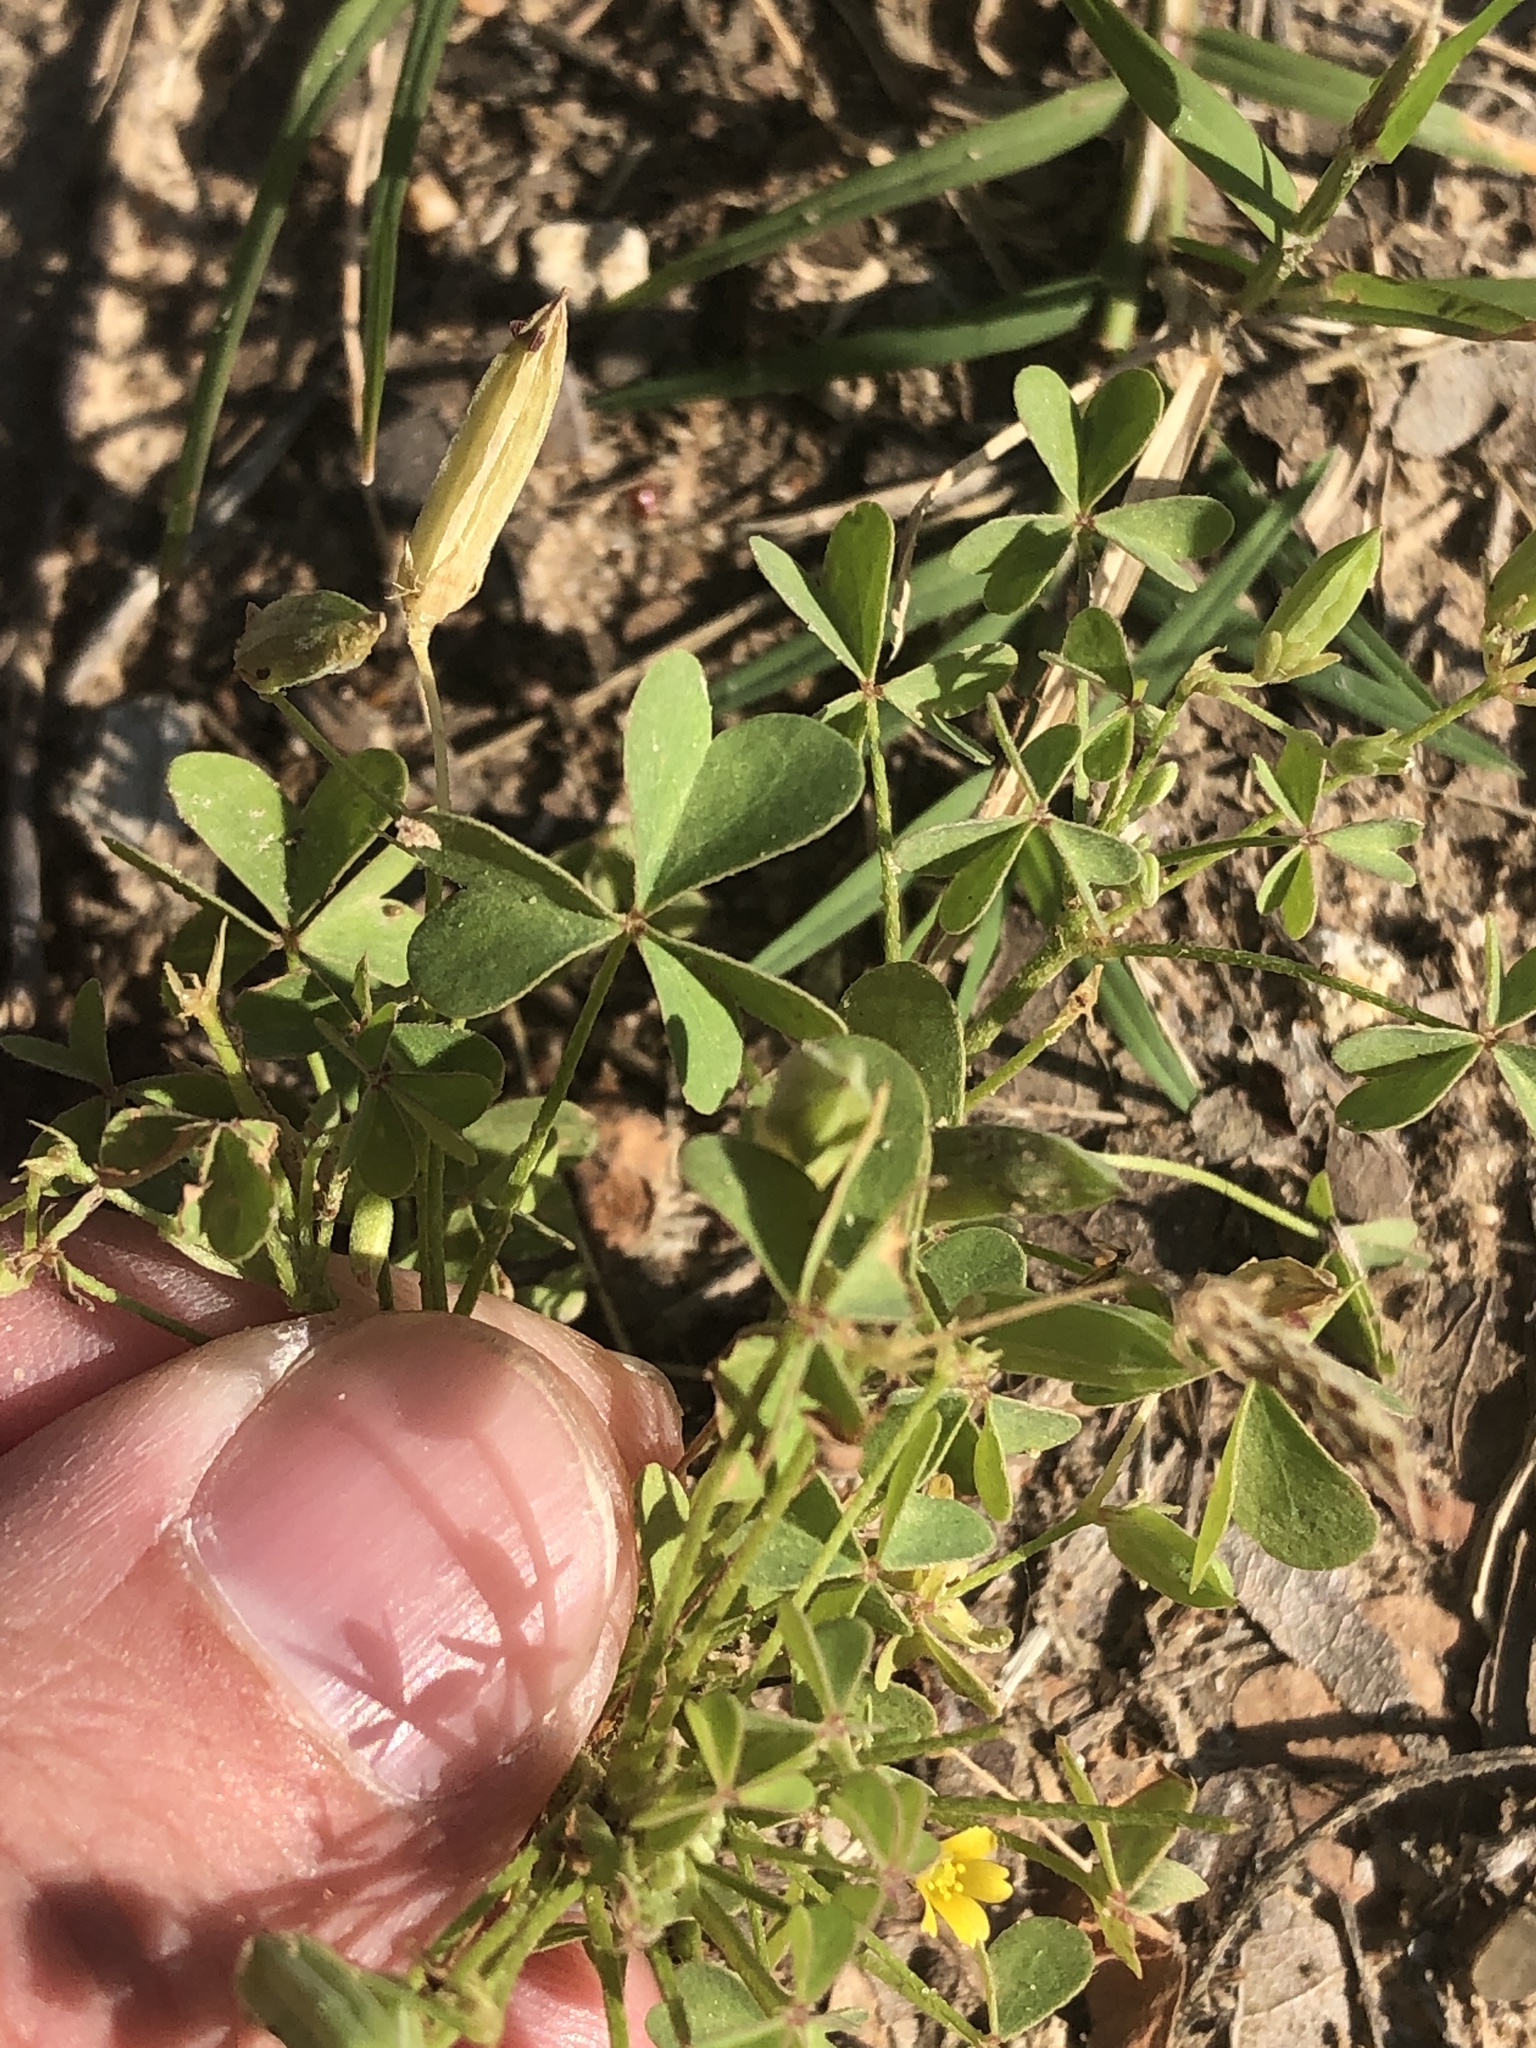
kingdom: Plantae
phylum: Tracheophyta
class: Magnoliopsida
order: Oxalidales
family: Oxalidaceae
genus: Oxalis
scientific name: Oxalis dillenii
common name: Sussex yellow-sorrel
